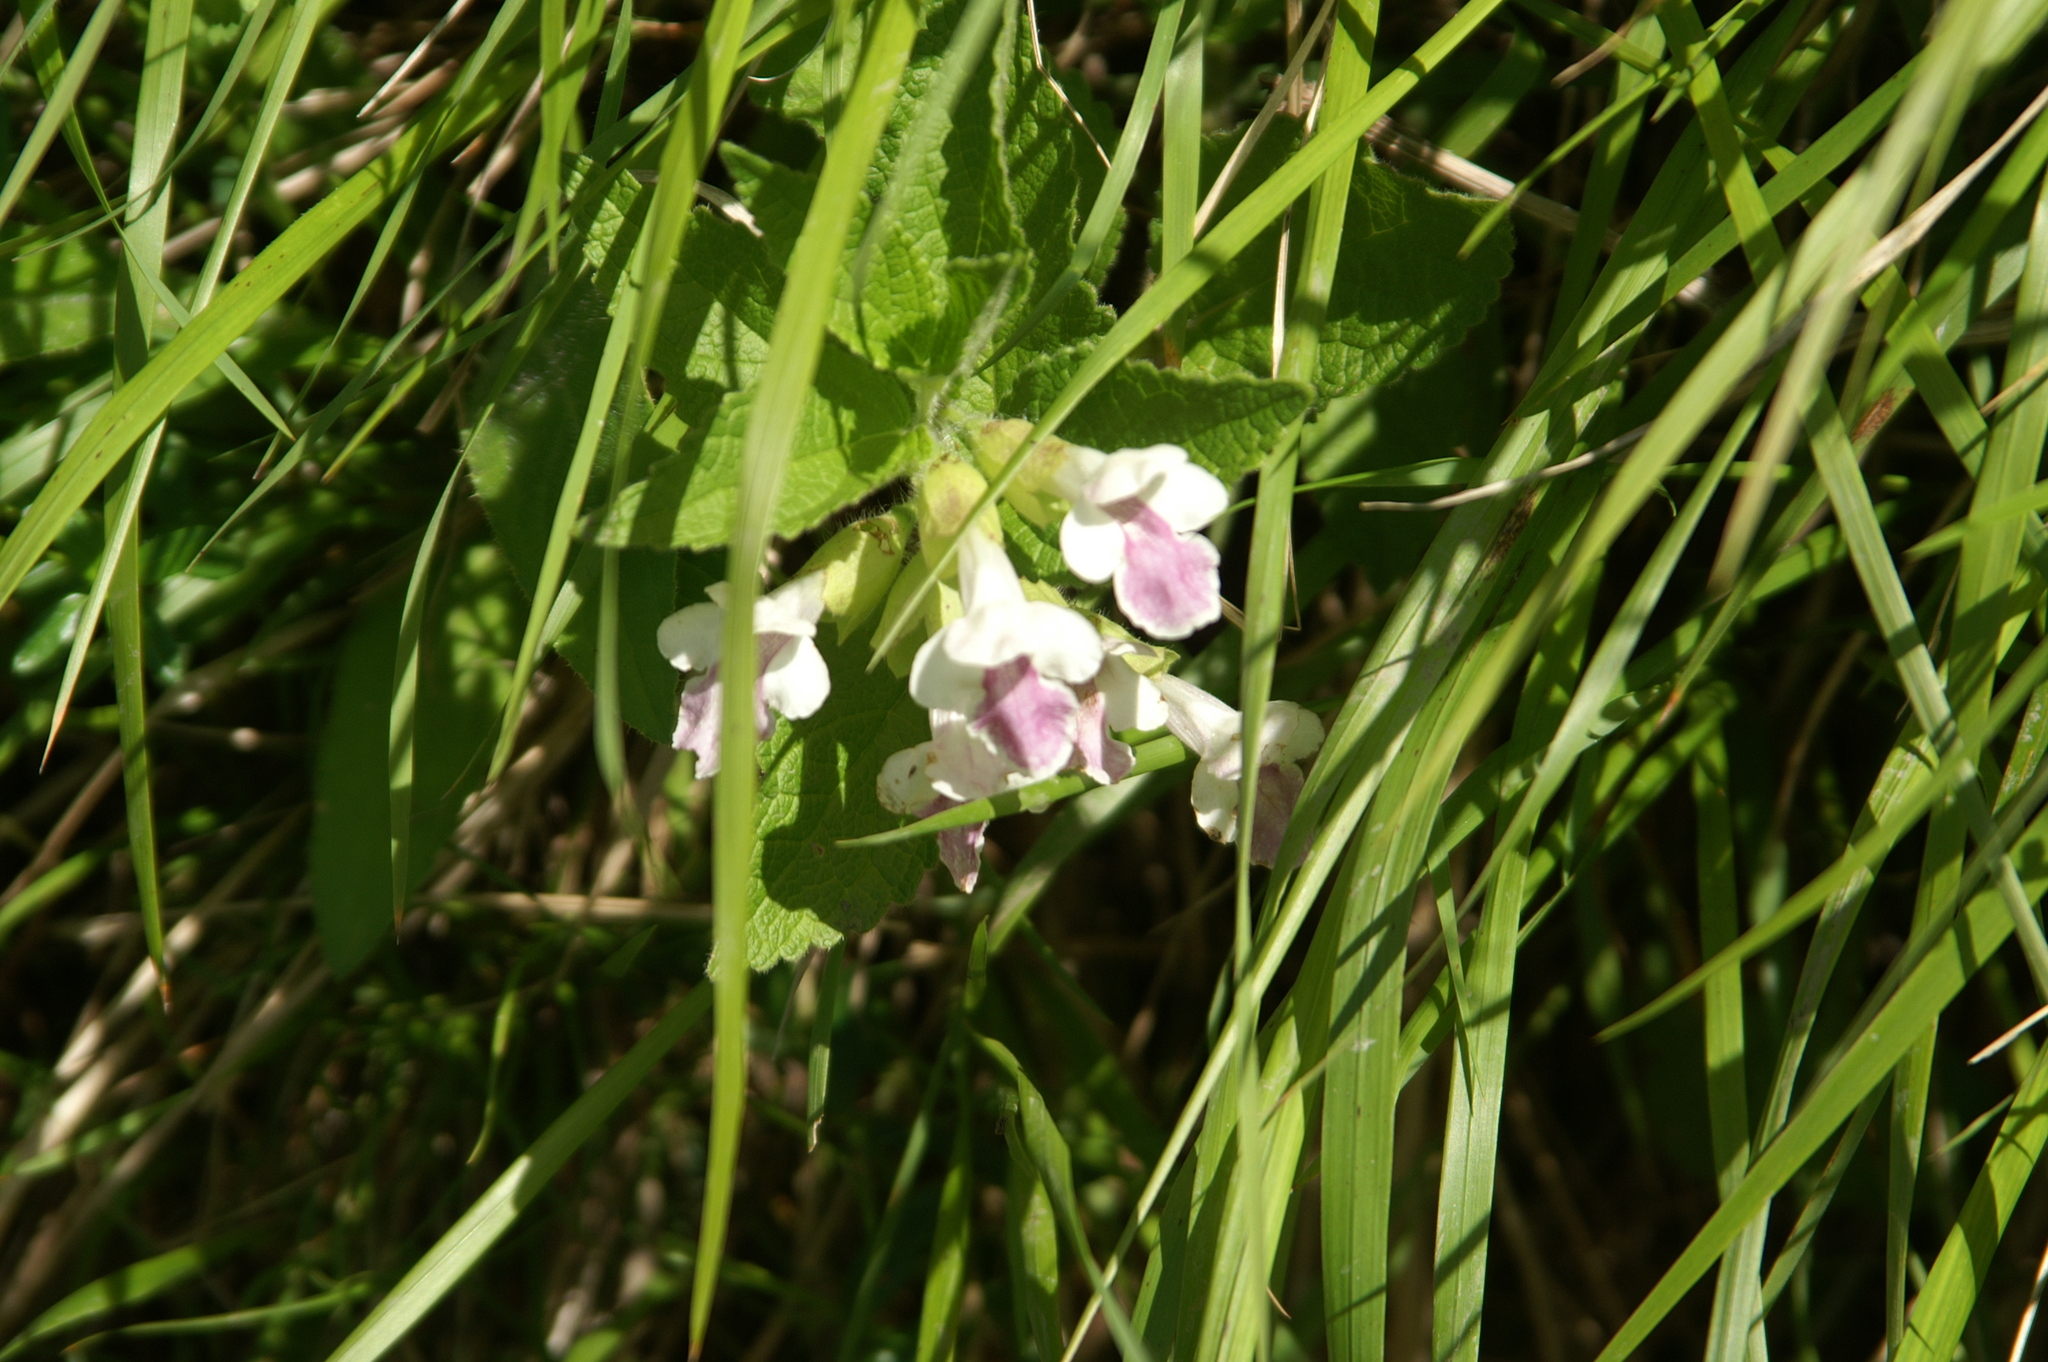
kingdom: Plantae
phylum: Tracheophyta
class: Magnoliopsida
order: Lamiales
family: Lamiaceae
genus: Melittis
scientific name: Melittis melissophyllum
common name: Bastard balm
